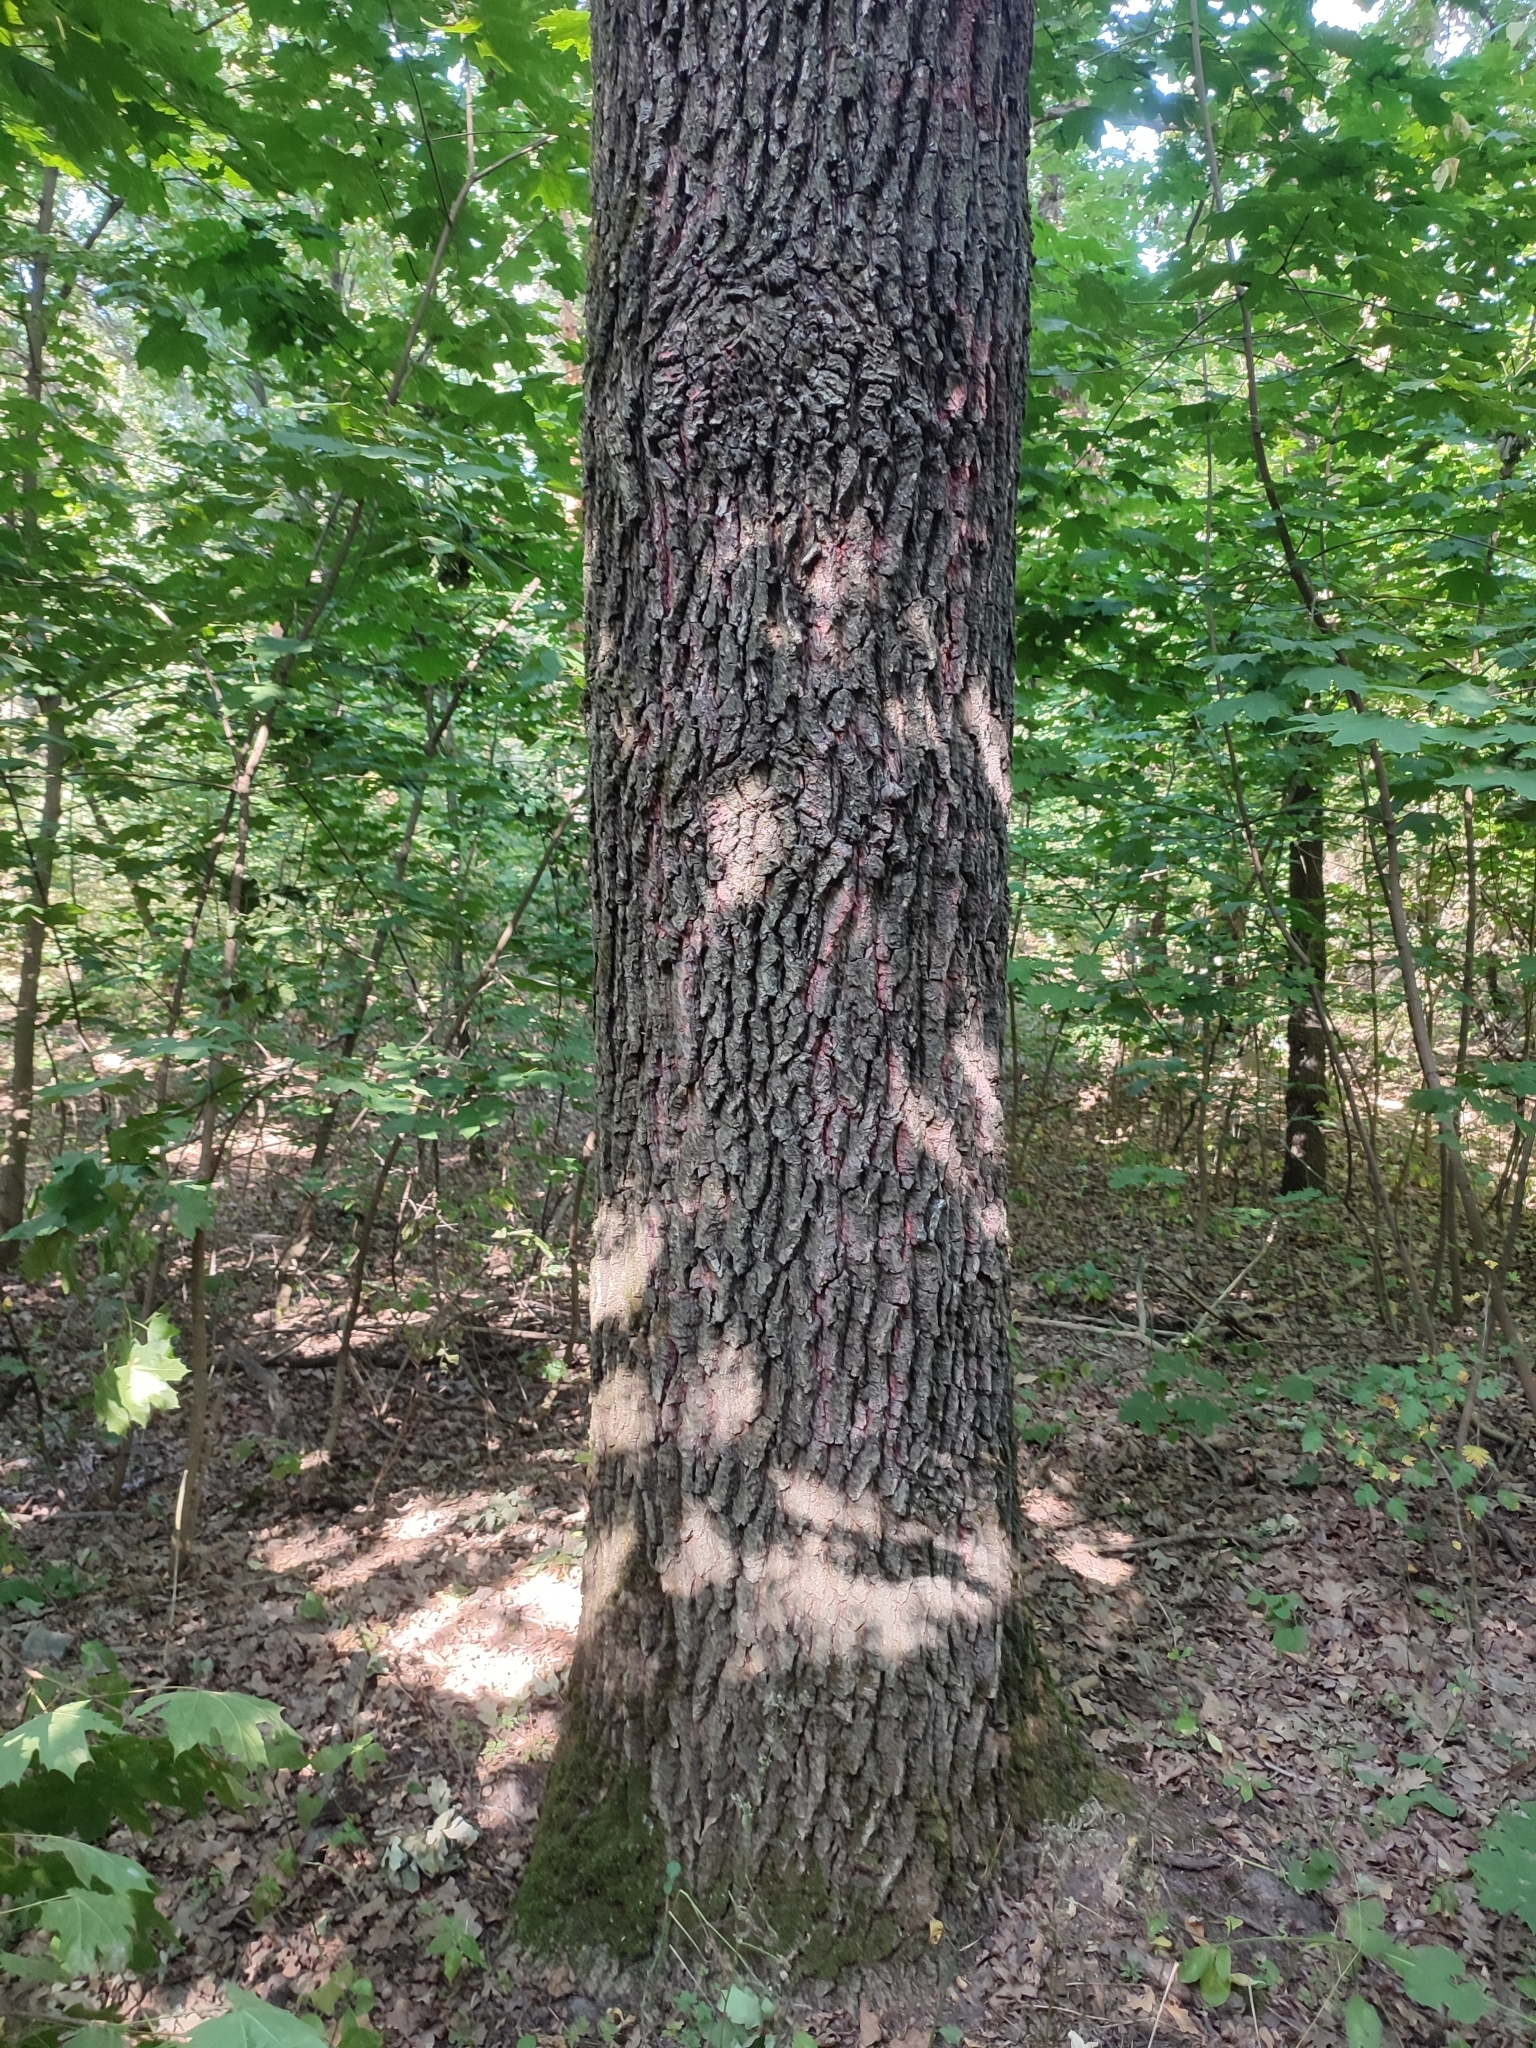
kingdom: Plantae
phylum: Tracheophyta
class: Magnoliopsida
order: Fagales
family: Fagaceae
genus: Quercus
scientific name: Quercus robur
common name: Pedunculate oak
